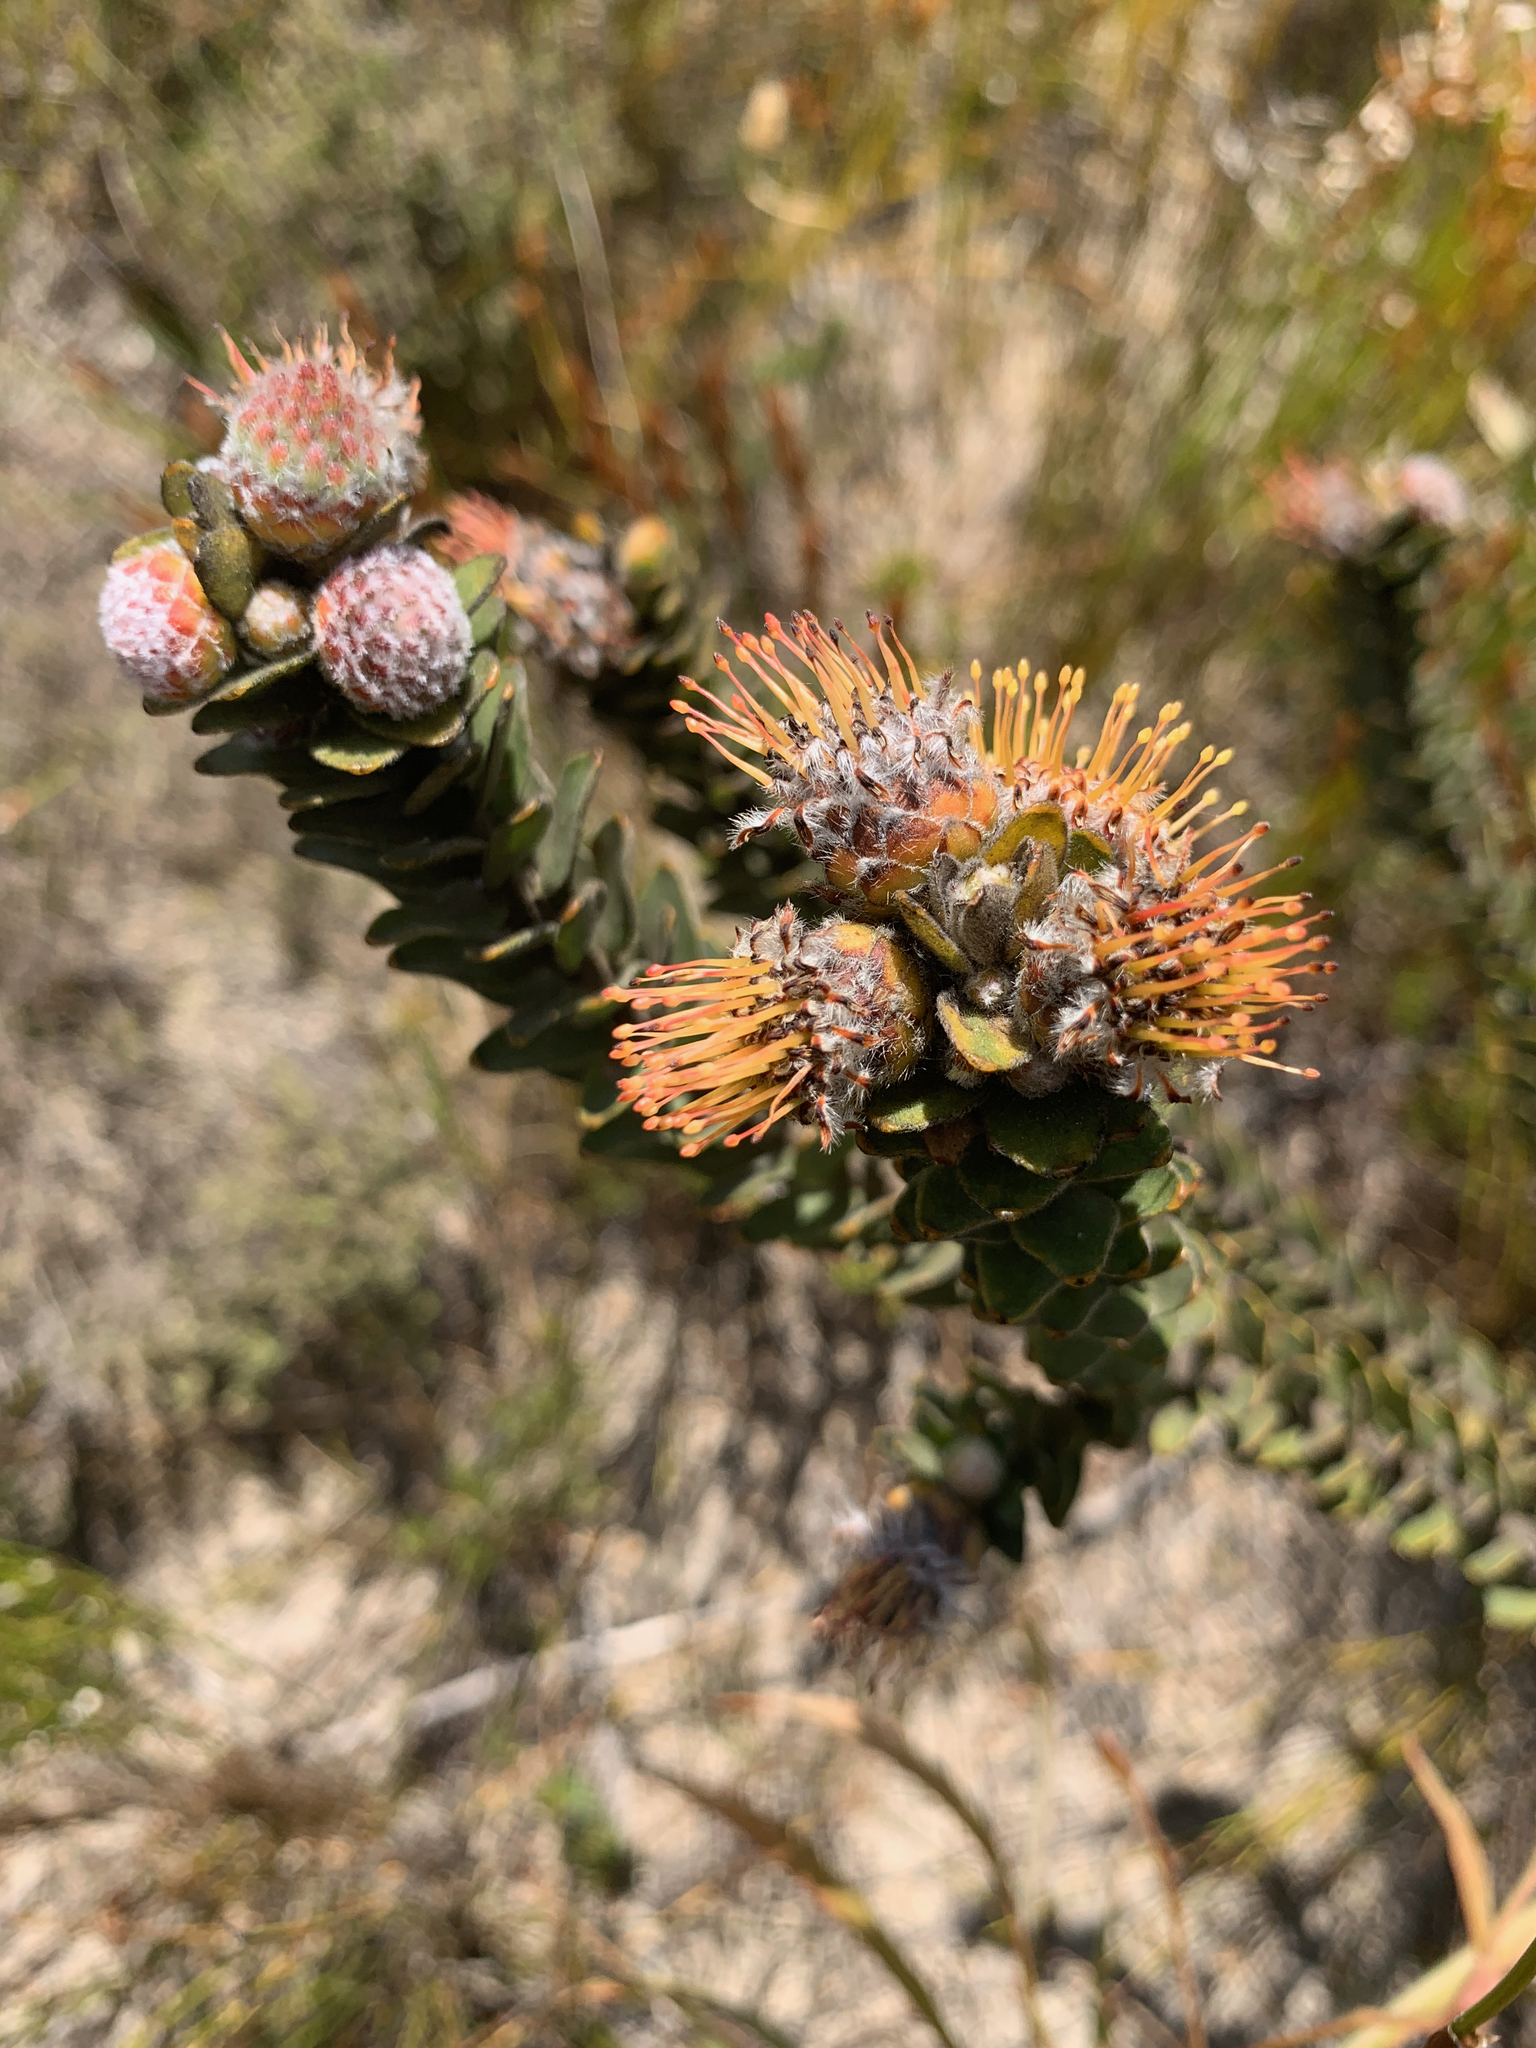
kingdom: Plantae
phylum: Tracheophyta
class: Magnoliopsida
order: Proteales
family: Proteaceae
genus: Leucospermum
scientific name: Leucospermum truncatulum
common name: Oval-leaf pincushion
